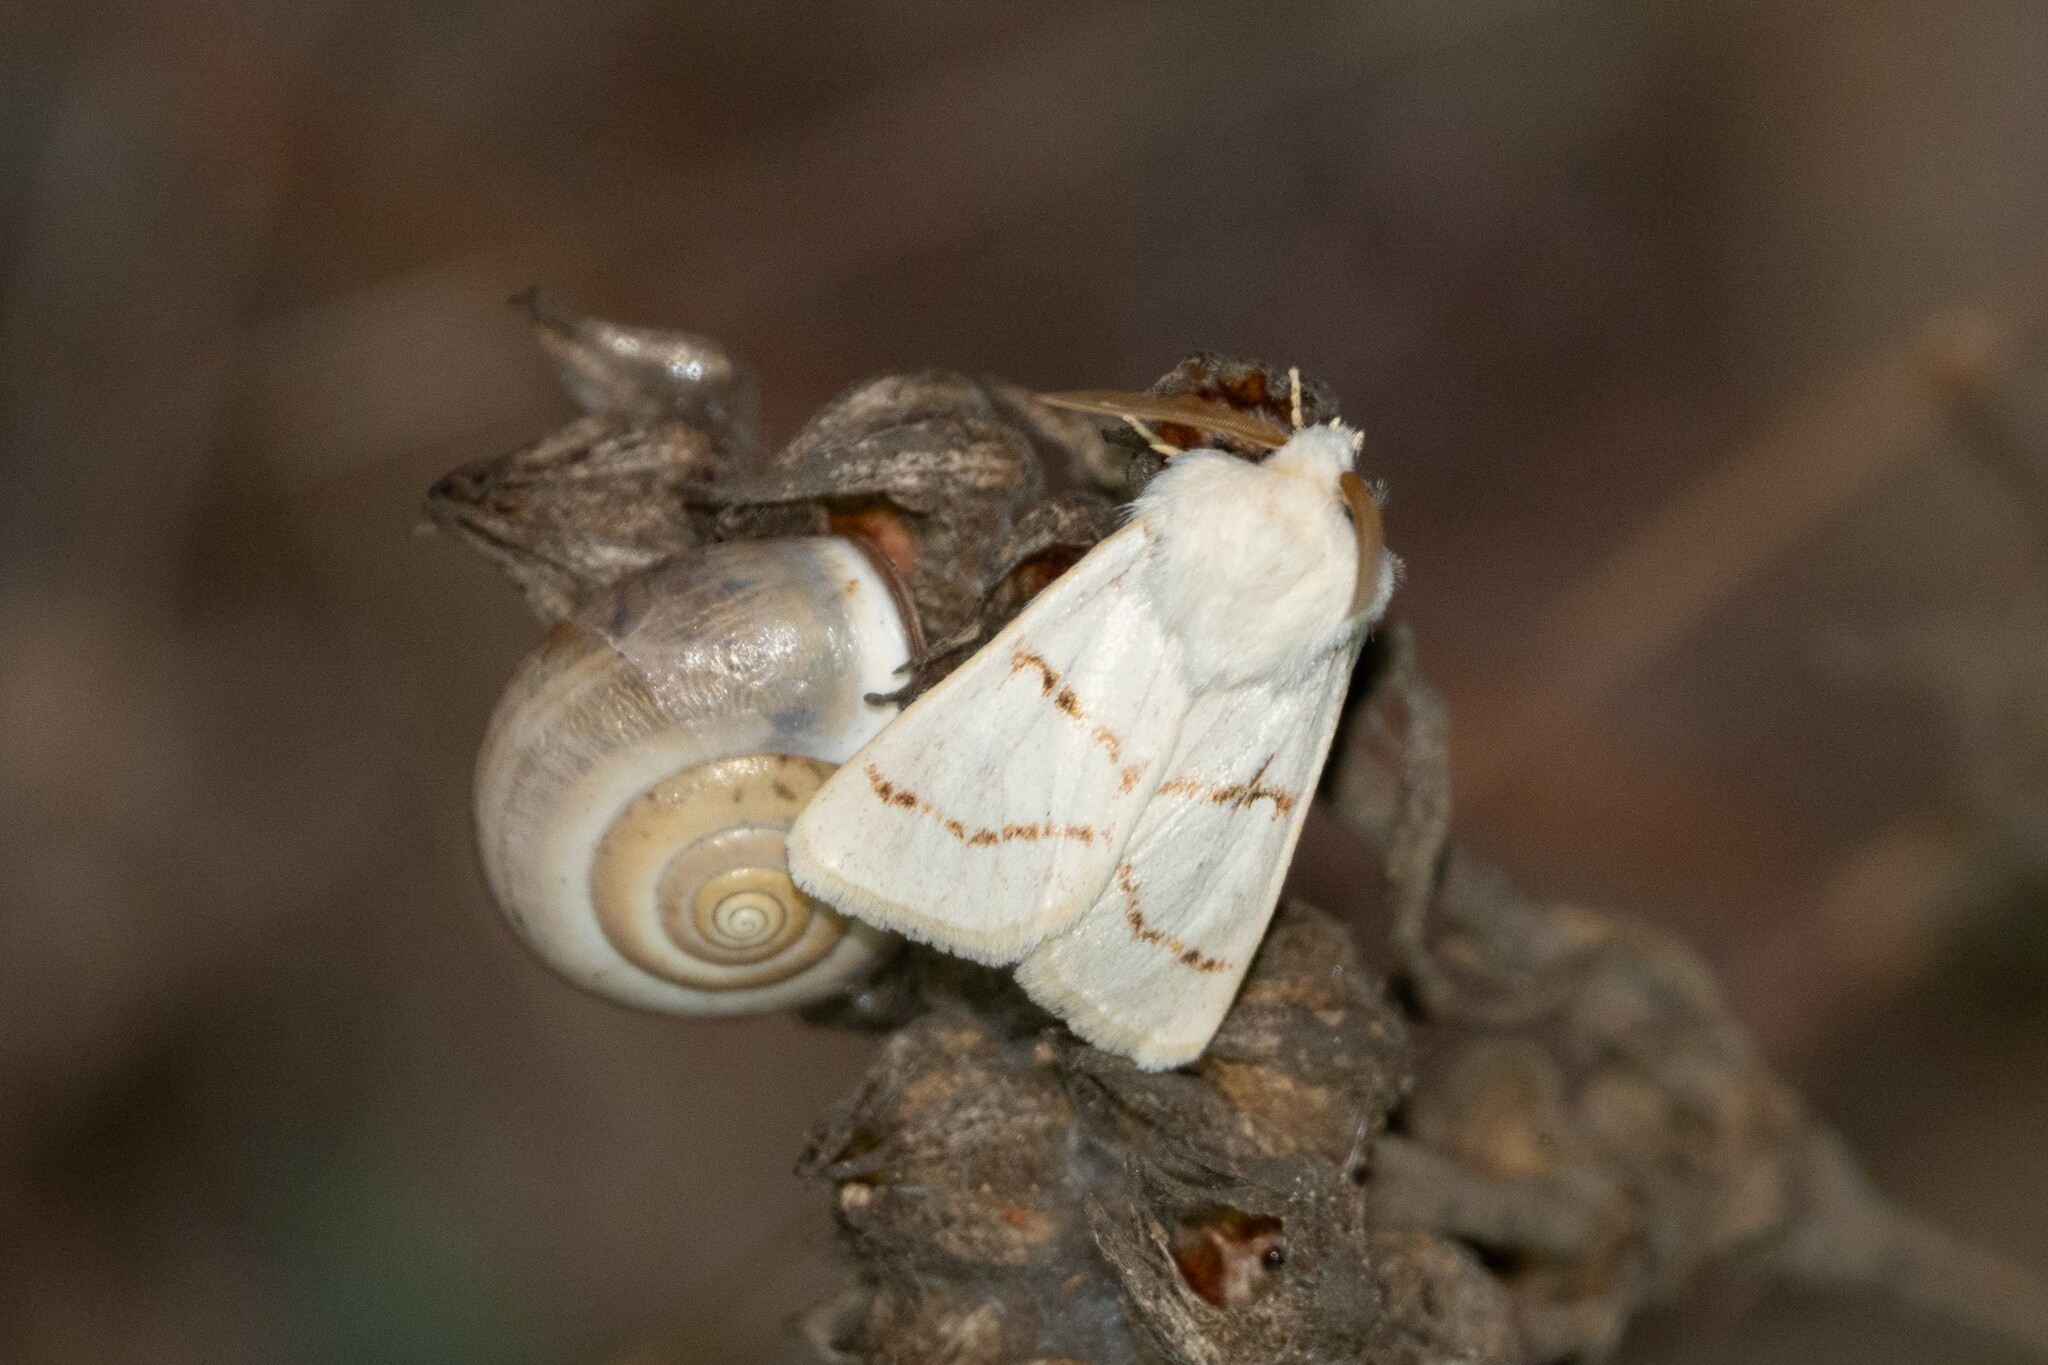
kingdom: Animalia
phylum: Arthropoda
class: Insecta
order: Lepidoptera
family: Noctuidae
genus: Episema
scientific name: Episema korsakovi
